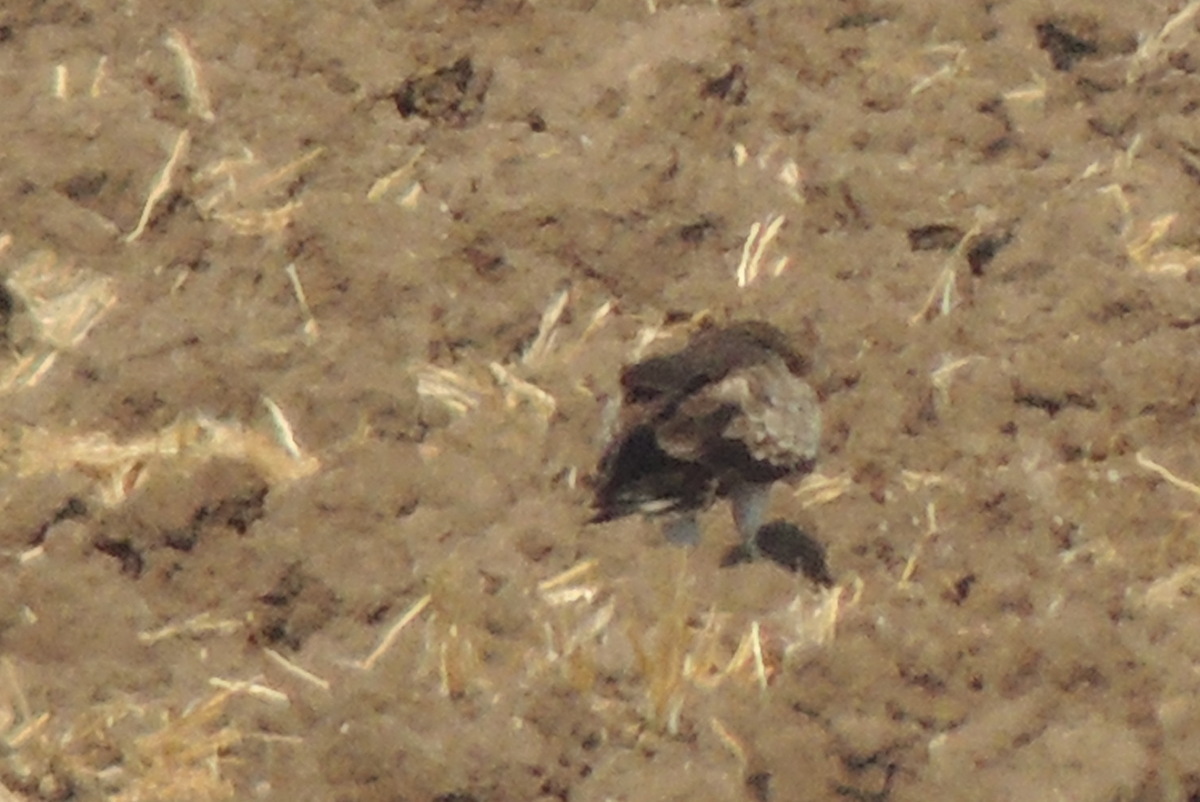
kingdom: Animalia
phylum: Chordata
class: Aves
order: Accipitriformes
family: Accipitridae
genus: Circaetus
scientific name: Circaetus gallicus
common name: Short-toed snake eagle
